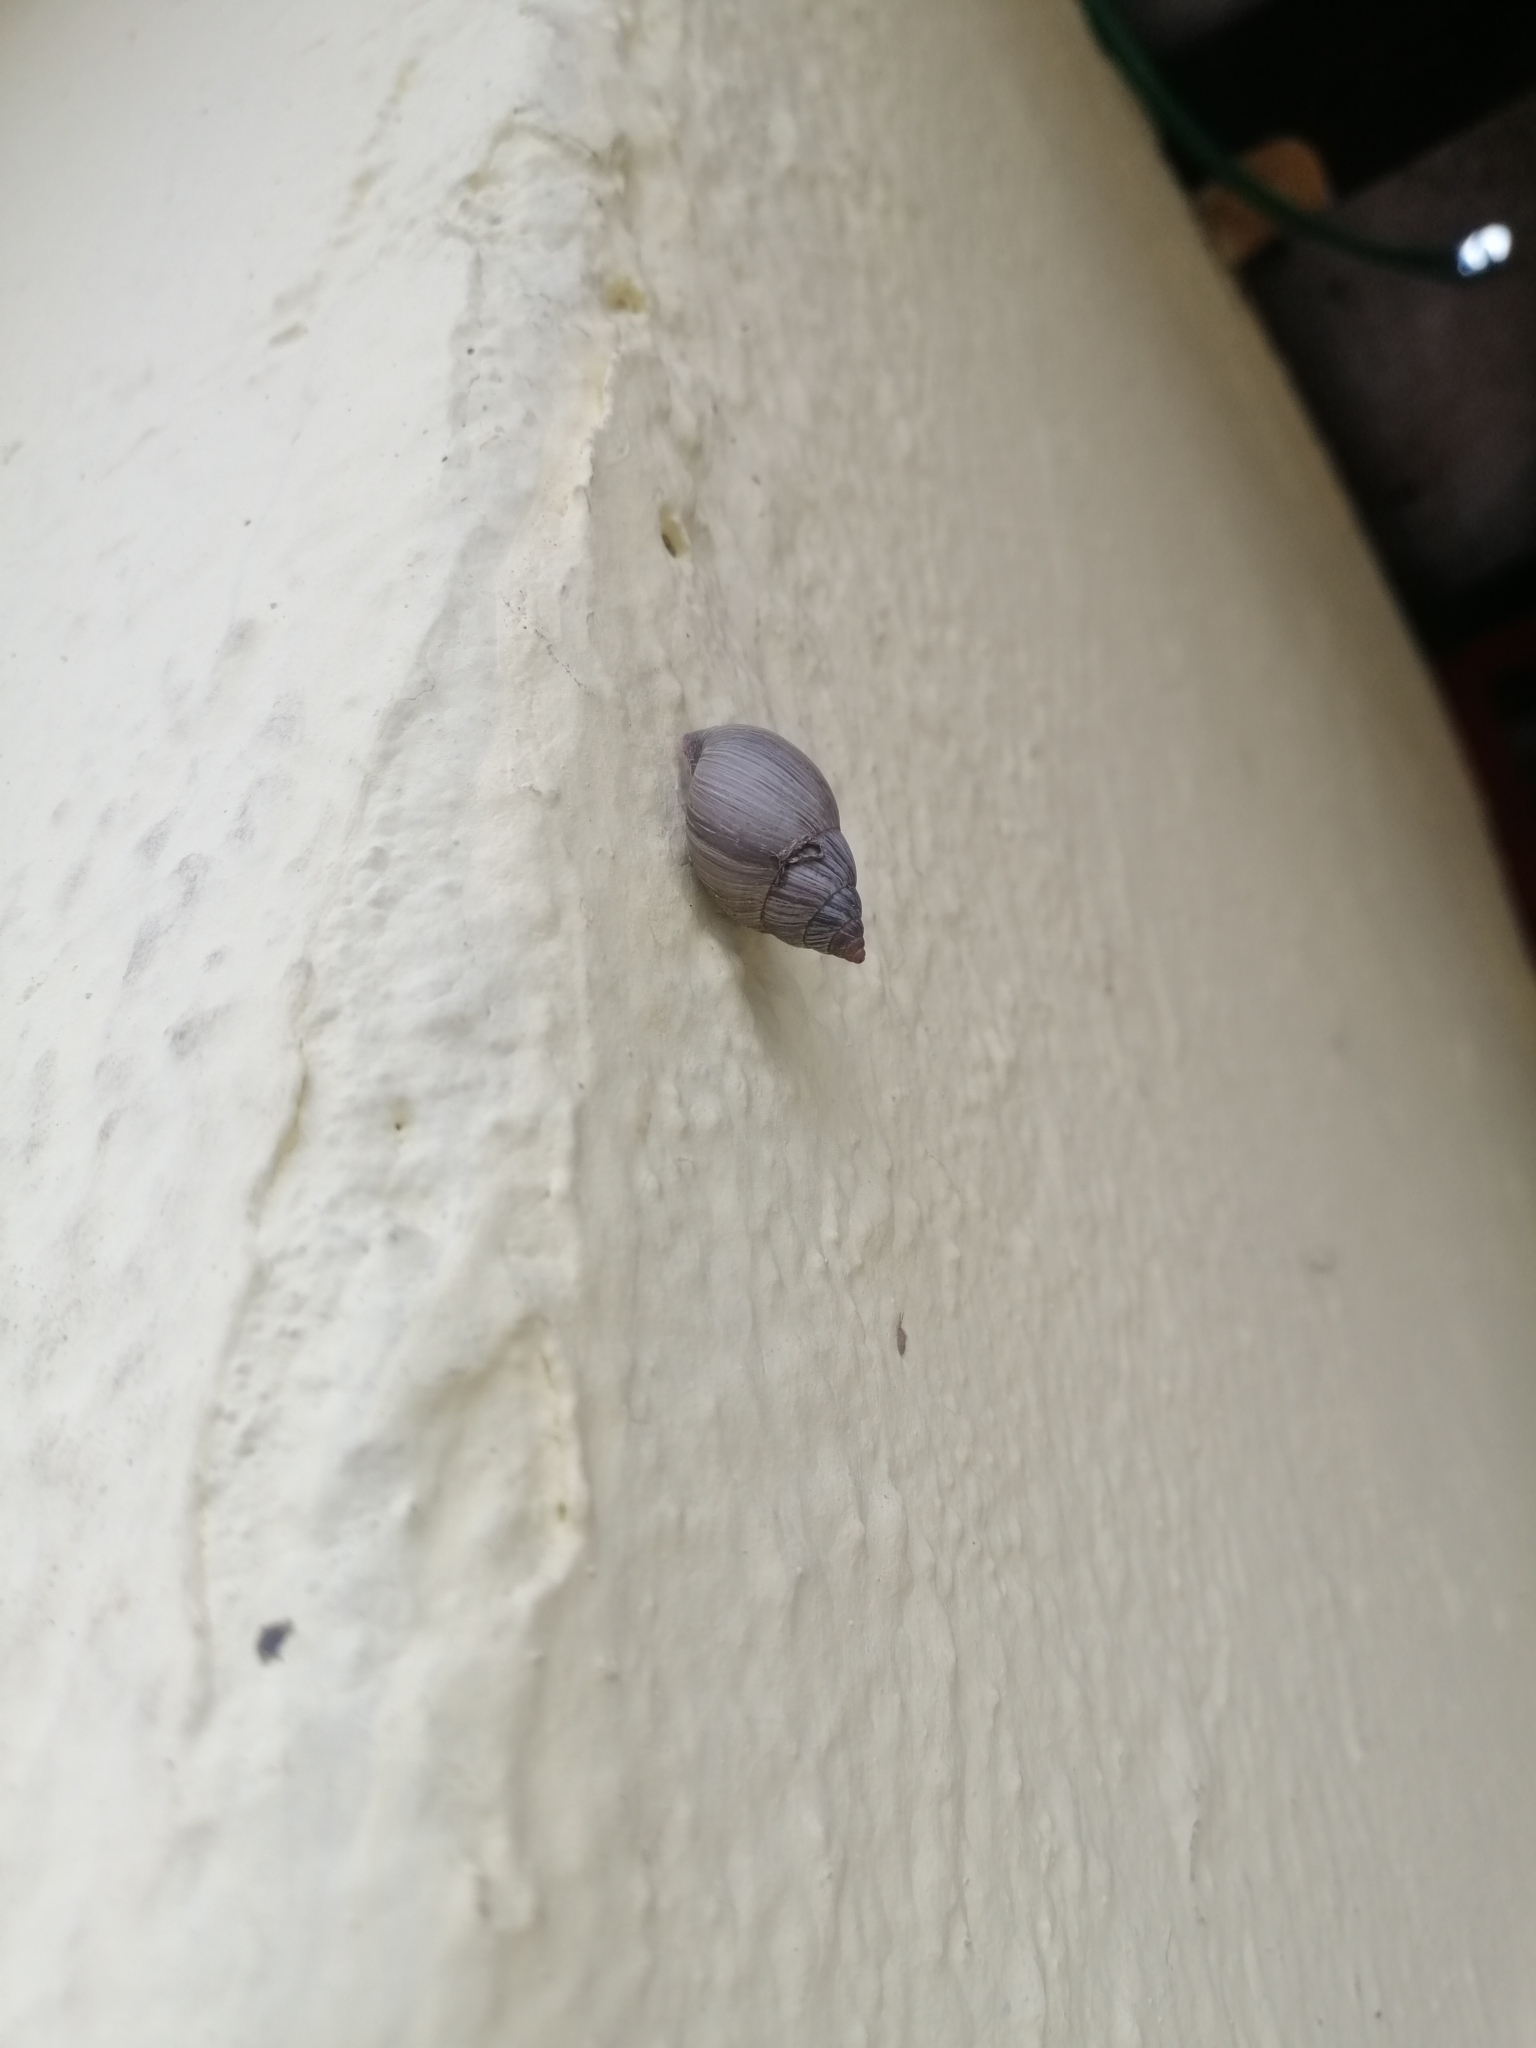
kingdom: Animalia
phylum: Mollusca
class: Gastropoda
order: Stylommatophora
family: Bulimulidae
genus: Naesiotus
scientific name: Naesiotus quitensis
